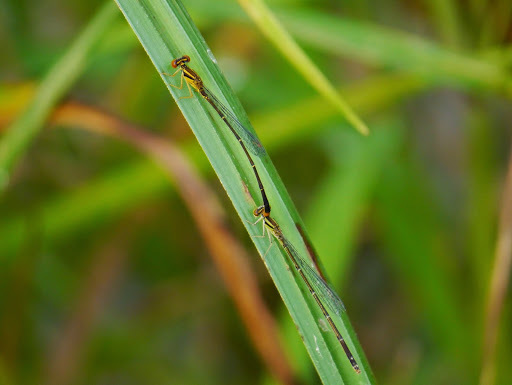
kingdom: Animalia
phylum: Arthropoda
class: Insecta
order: Odonata
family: Coenagrionidae
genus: Enallagma
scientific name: Enallagma signatum
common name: Orange bluet
